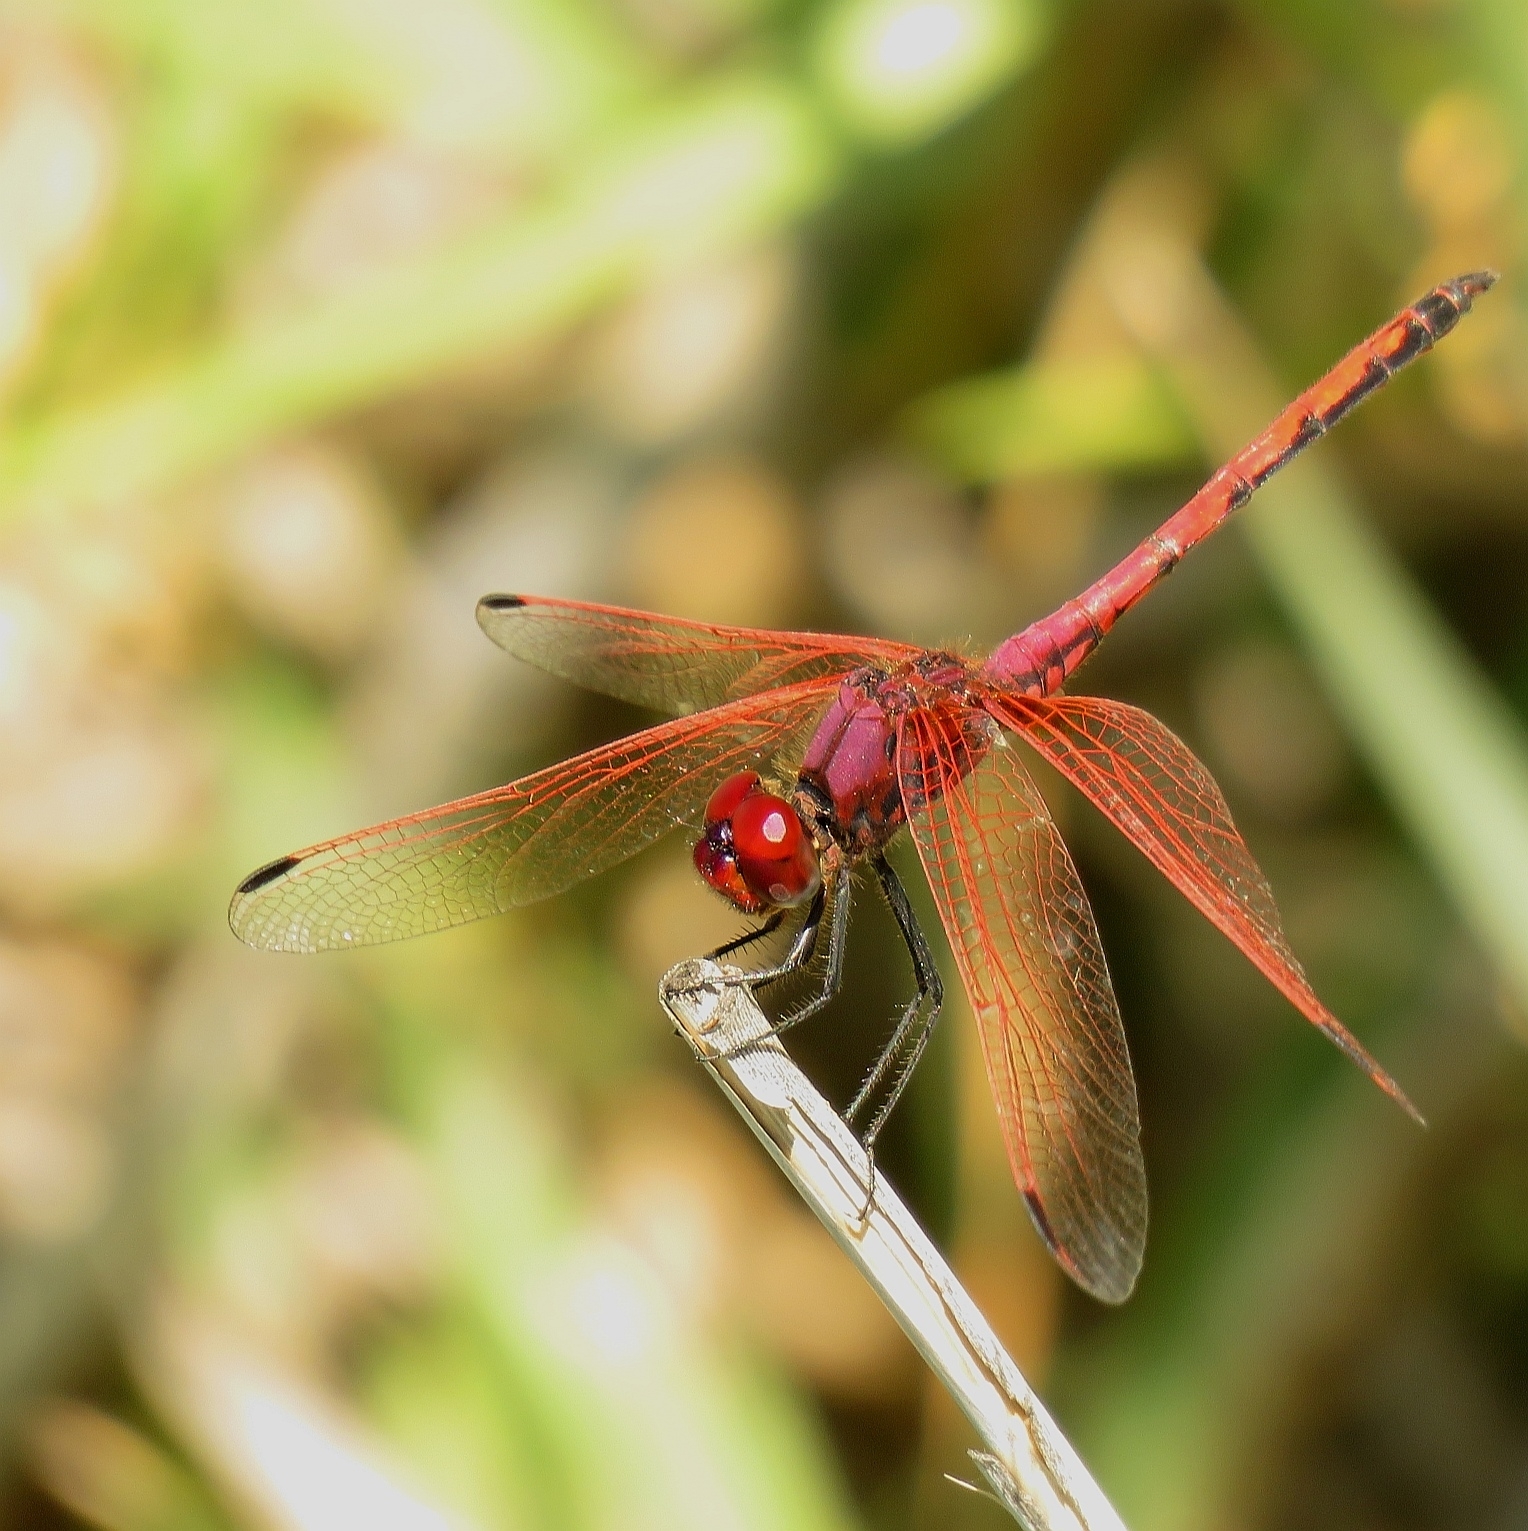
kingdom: Animalia
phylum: Arthropoda
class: Insecta
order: Odonata
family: Libellulidae
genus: Trithemis
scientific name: Trithemis arteriosa
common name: Red-veined dropwing
